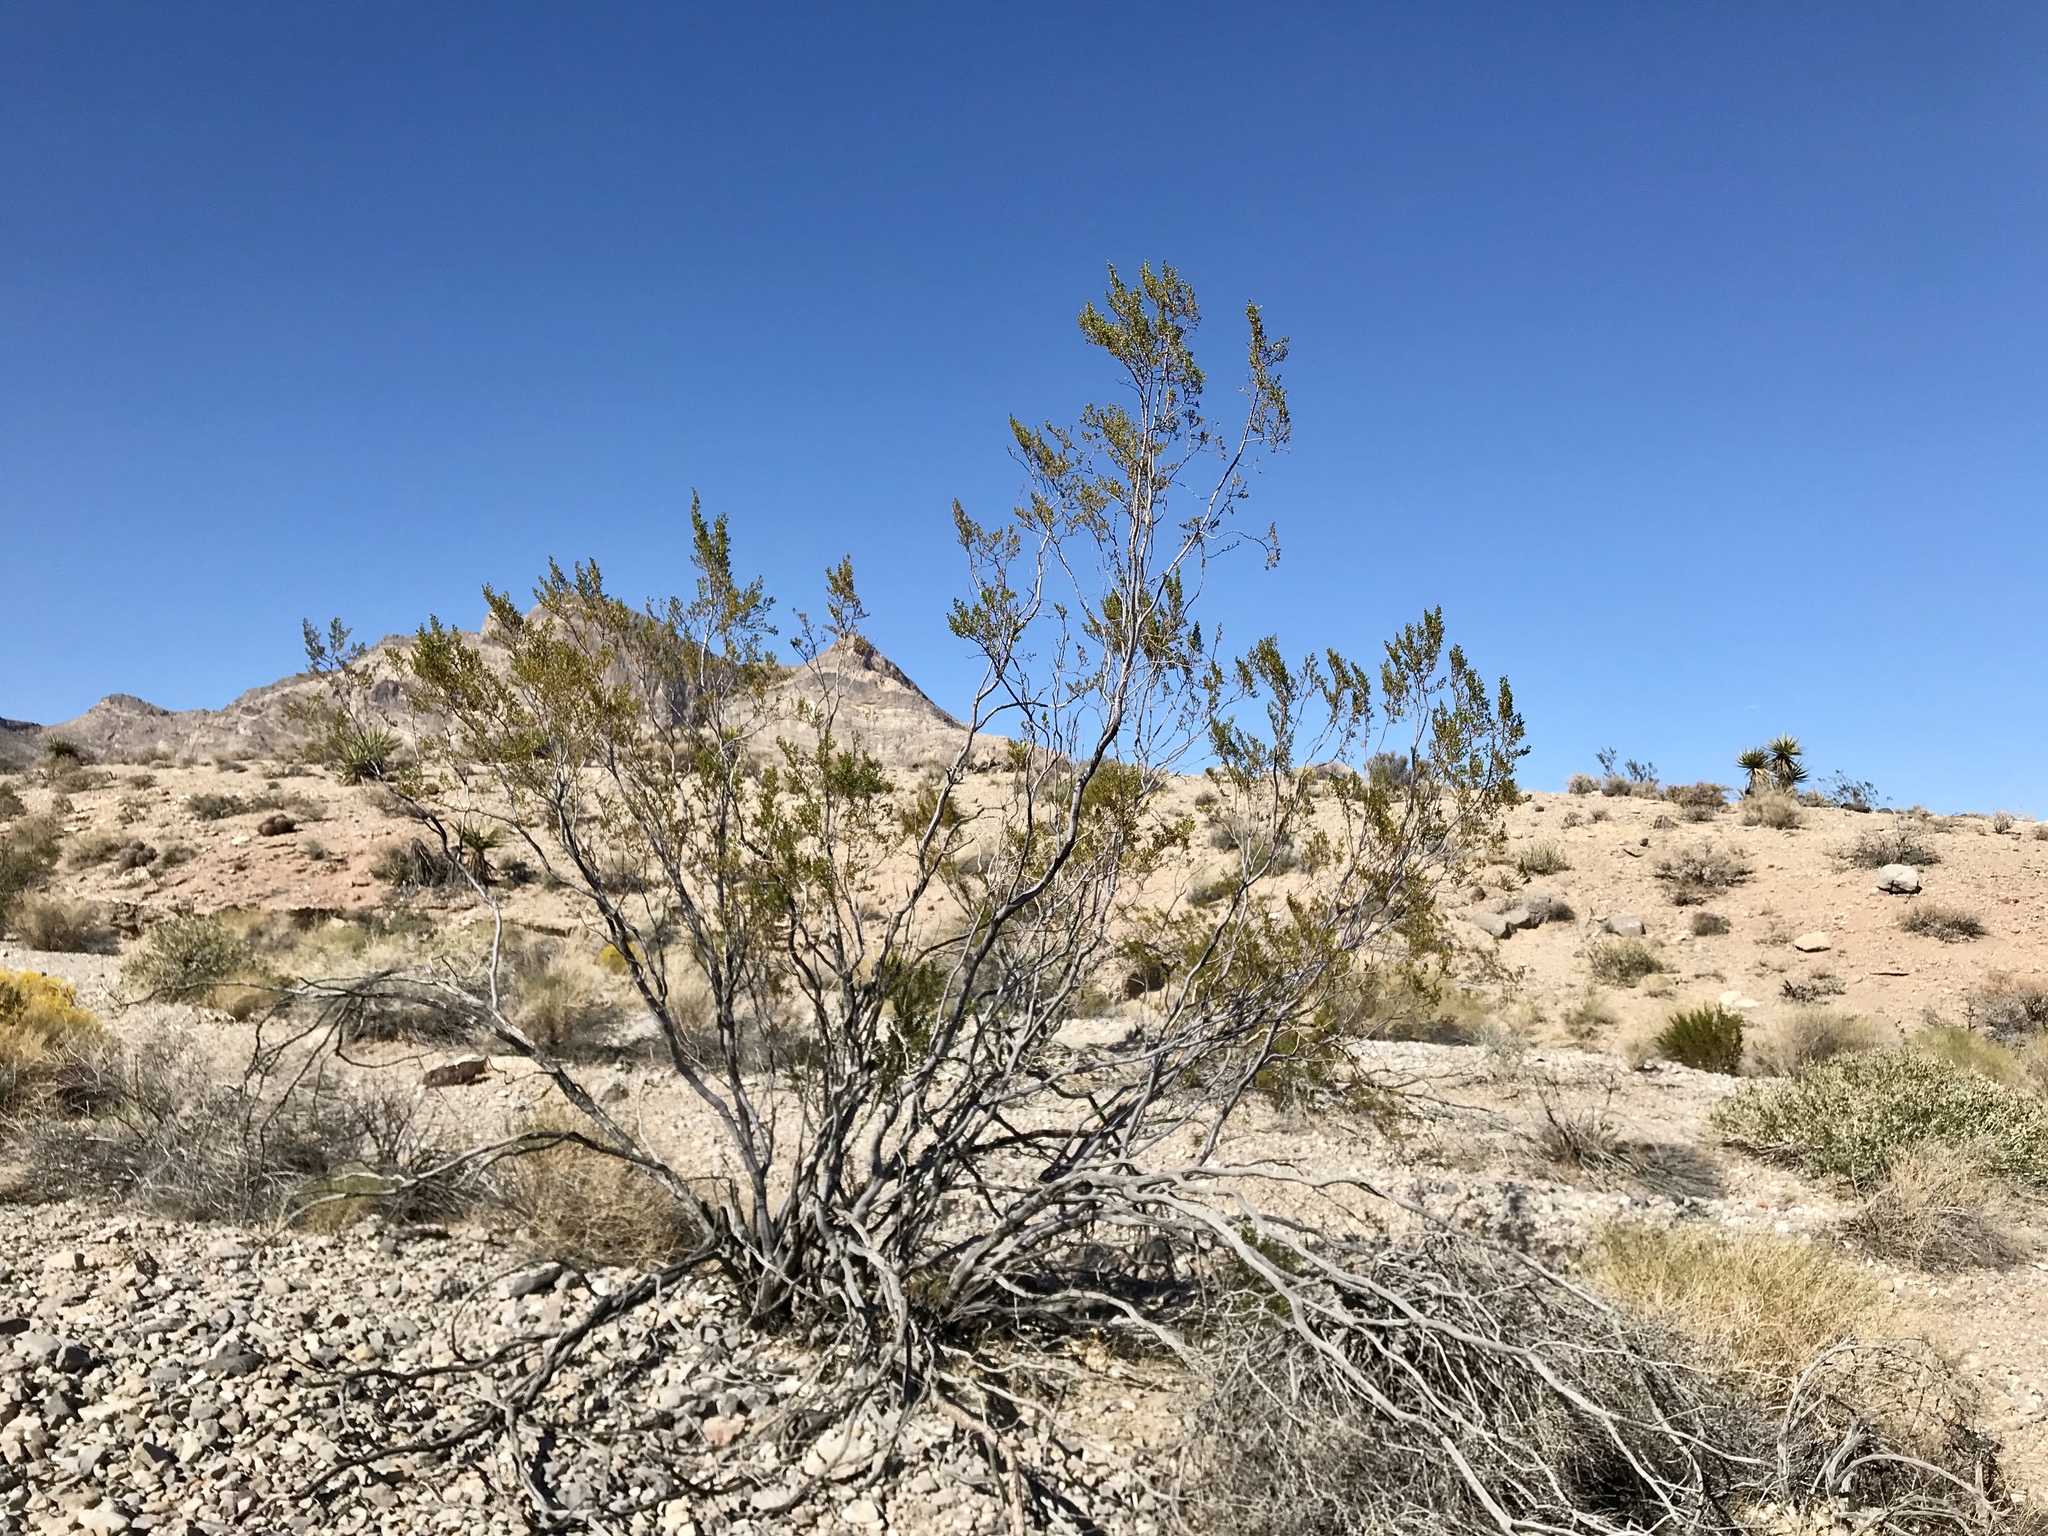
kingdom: Plantae
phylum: Tracheophyta
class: Magnoliopsida
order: Zygophyllales
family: Zygophyllaceae
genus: Larrea
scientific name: Larrea tridentata
